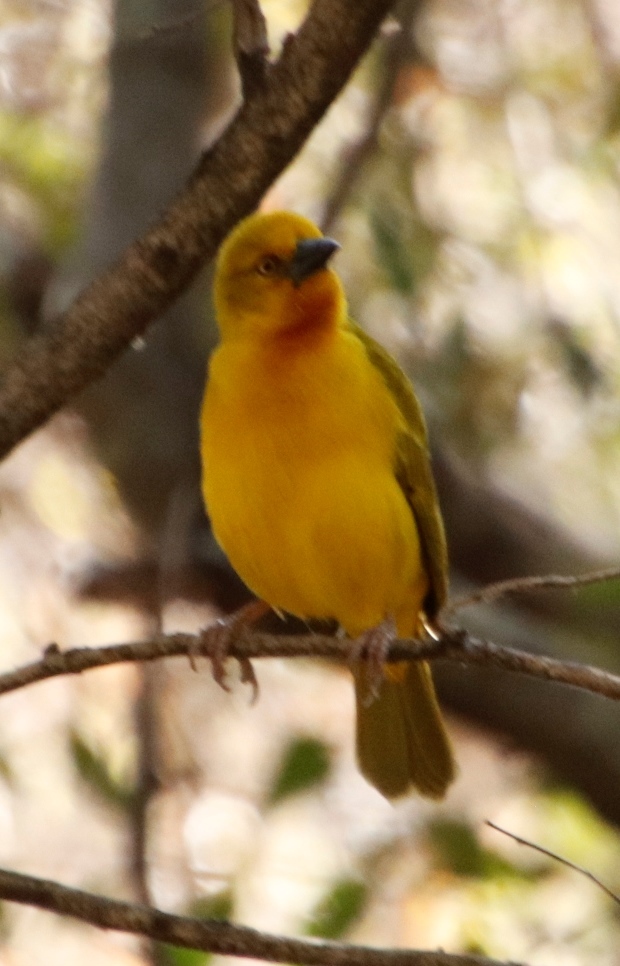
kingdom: Animalia
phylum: Chordata
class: Aves
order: Passeriformes
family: Ploceidae
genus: Ploceus
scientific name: Ploceus xanthops
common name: Holub's golden weaver
